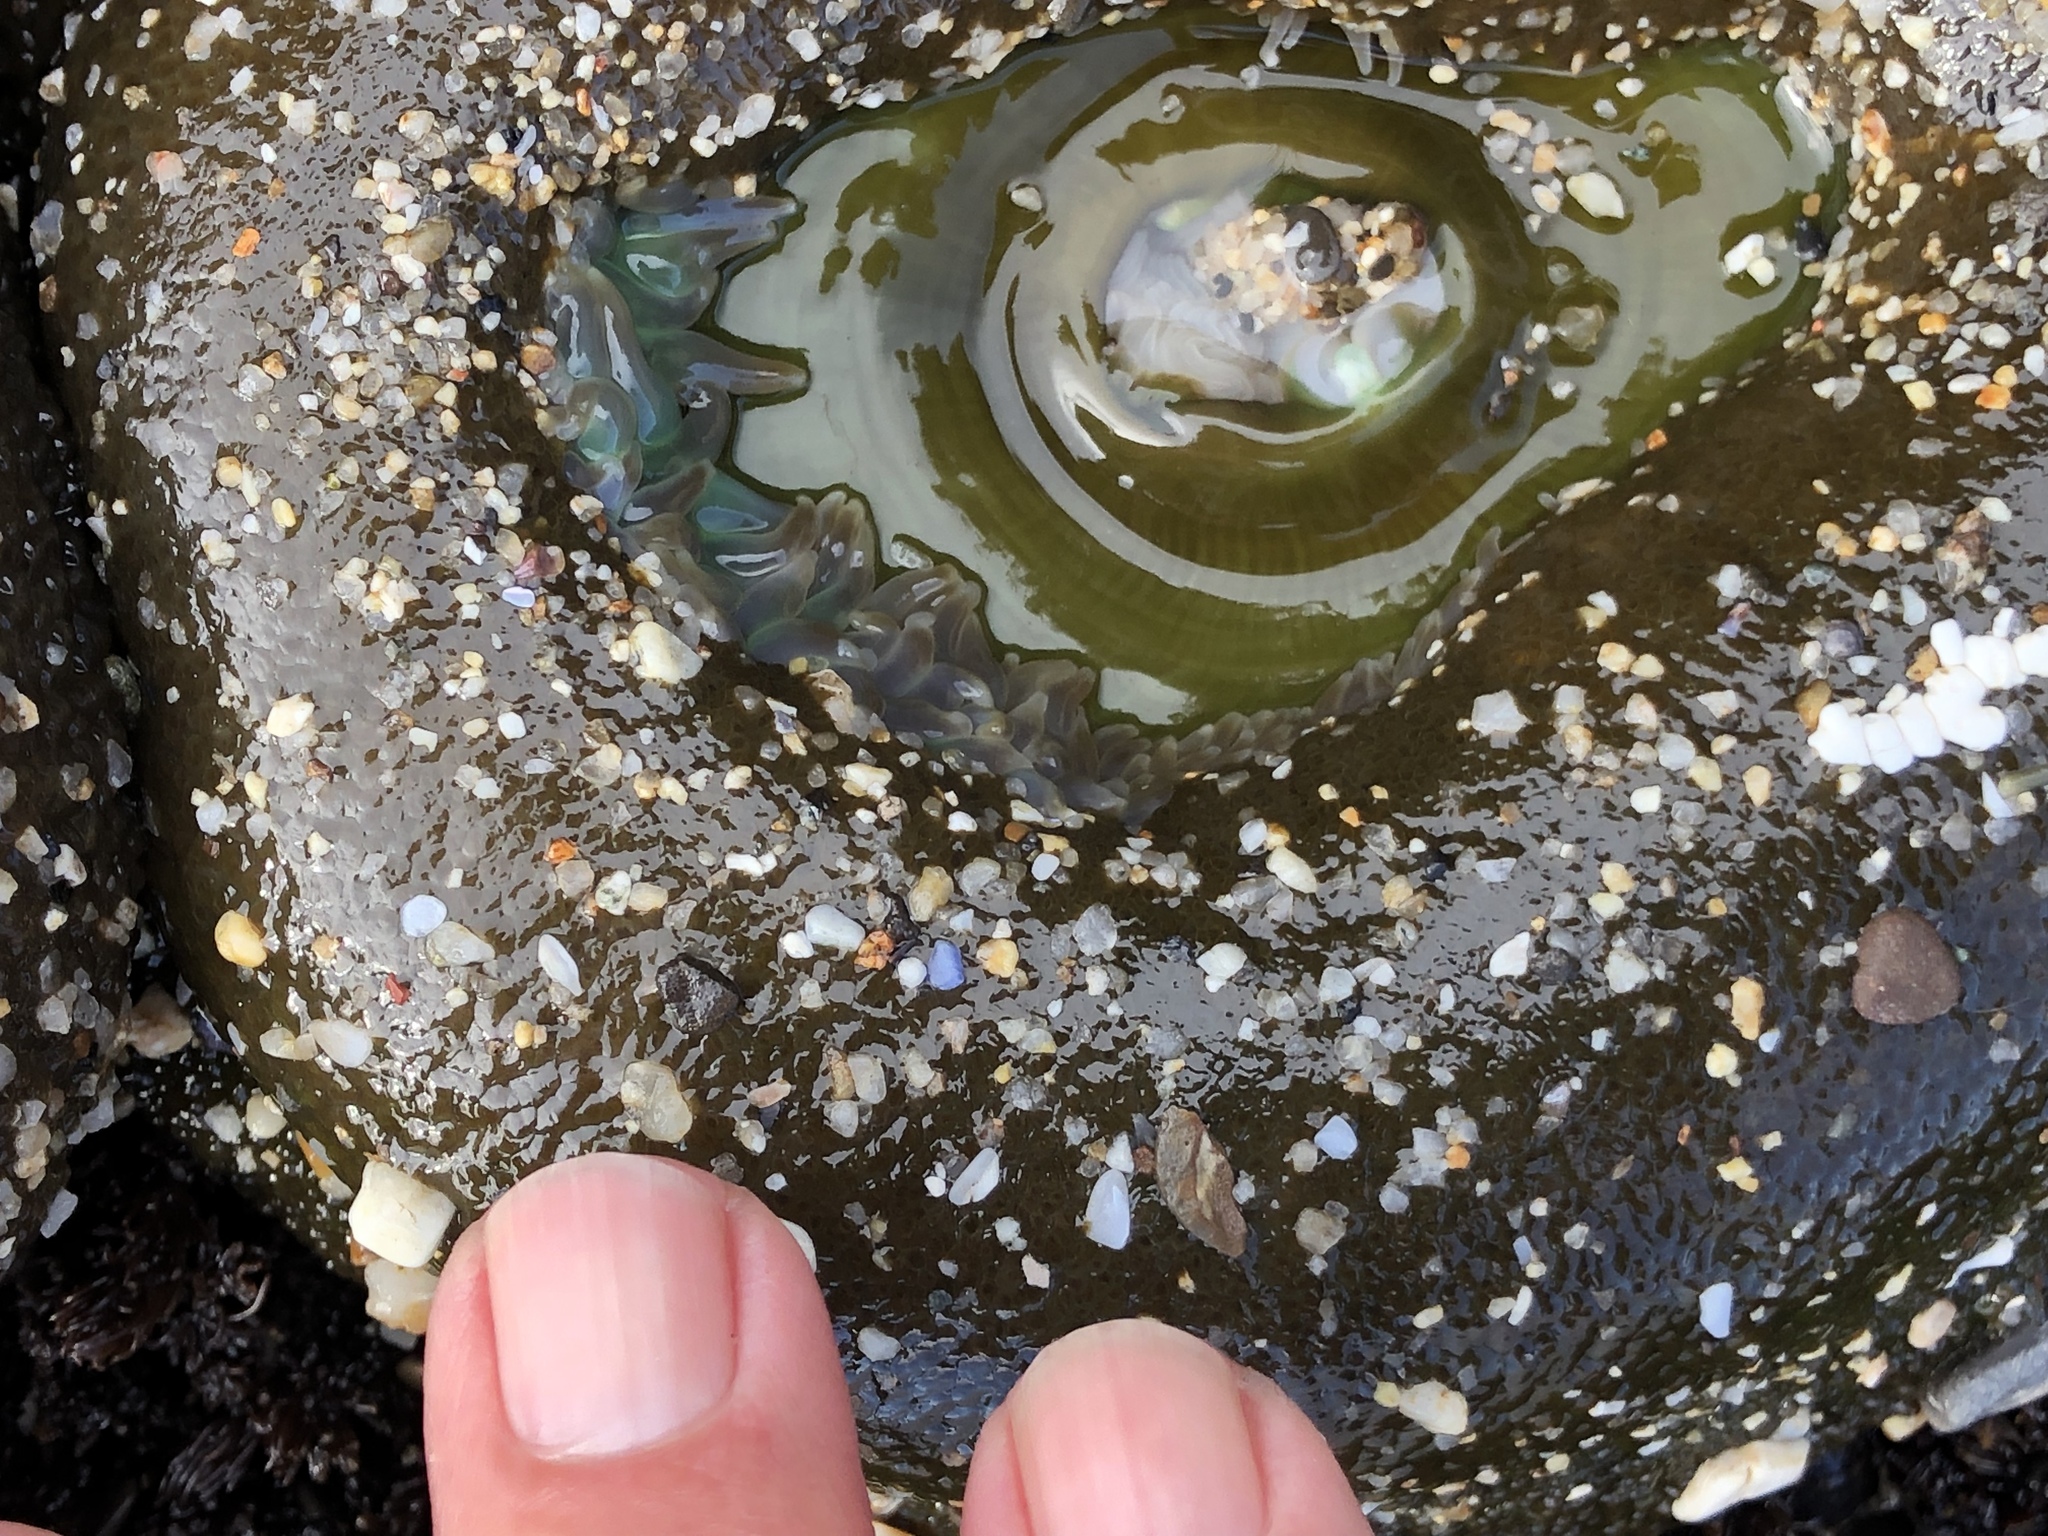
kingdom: Animalia
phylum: Cnidaria
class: Anthozoa
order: Actiniaria
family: Actiniidae
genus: Anthopleura
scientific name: Anthopleura xanthogrammica
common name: Giant green anemone
